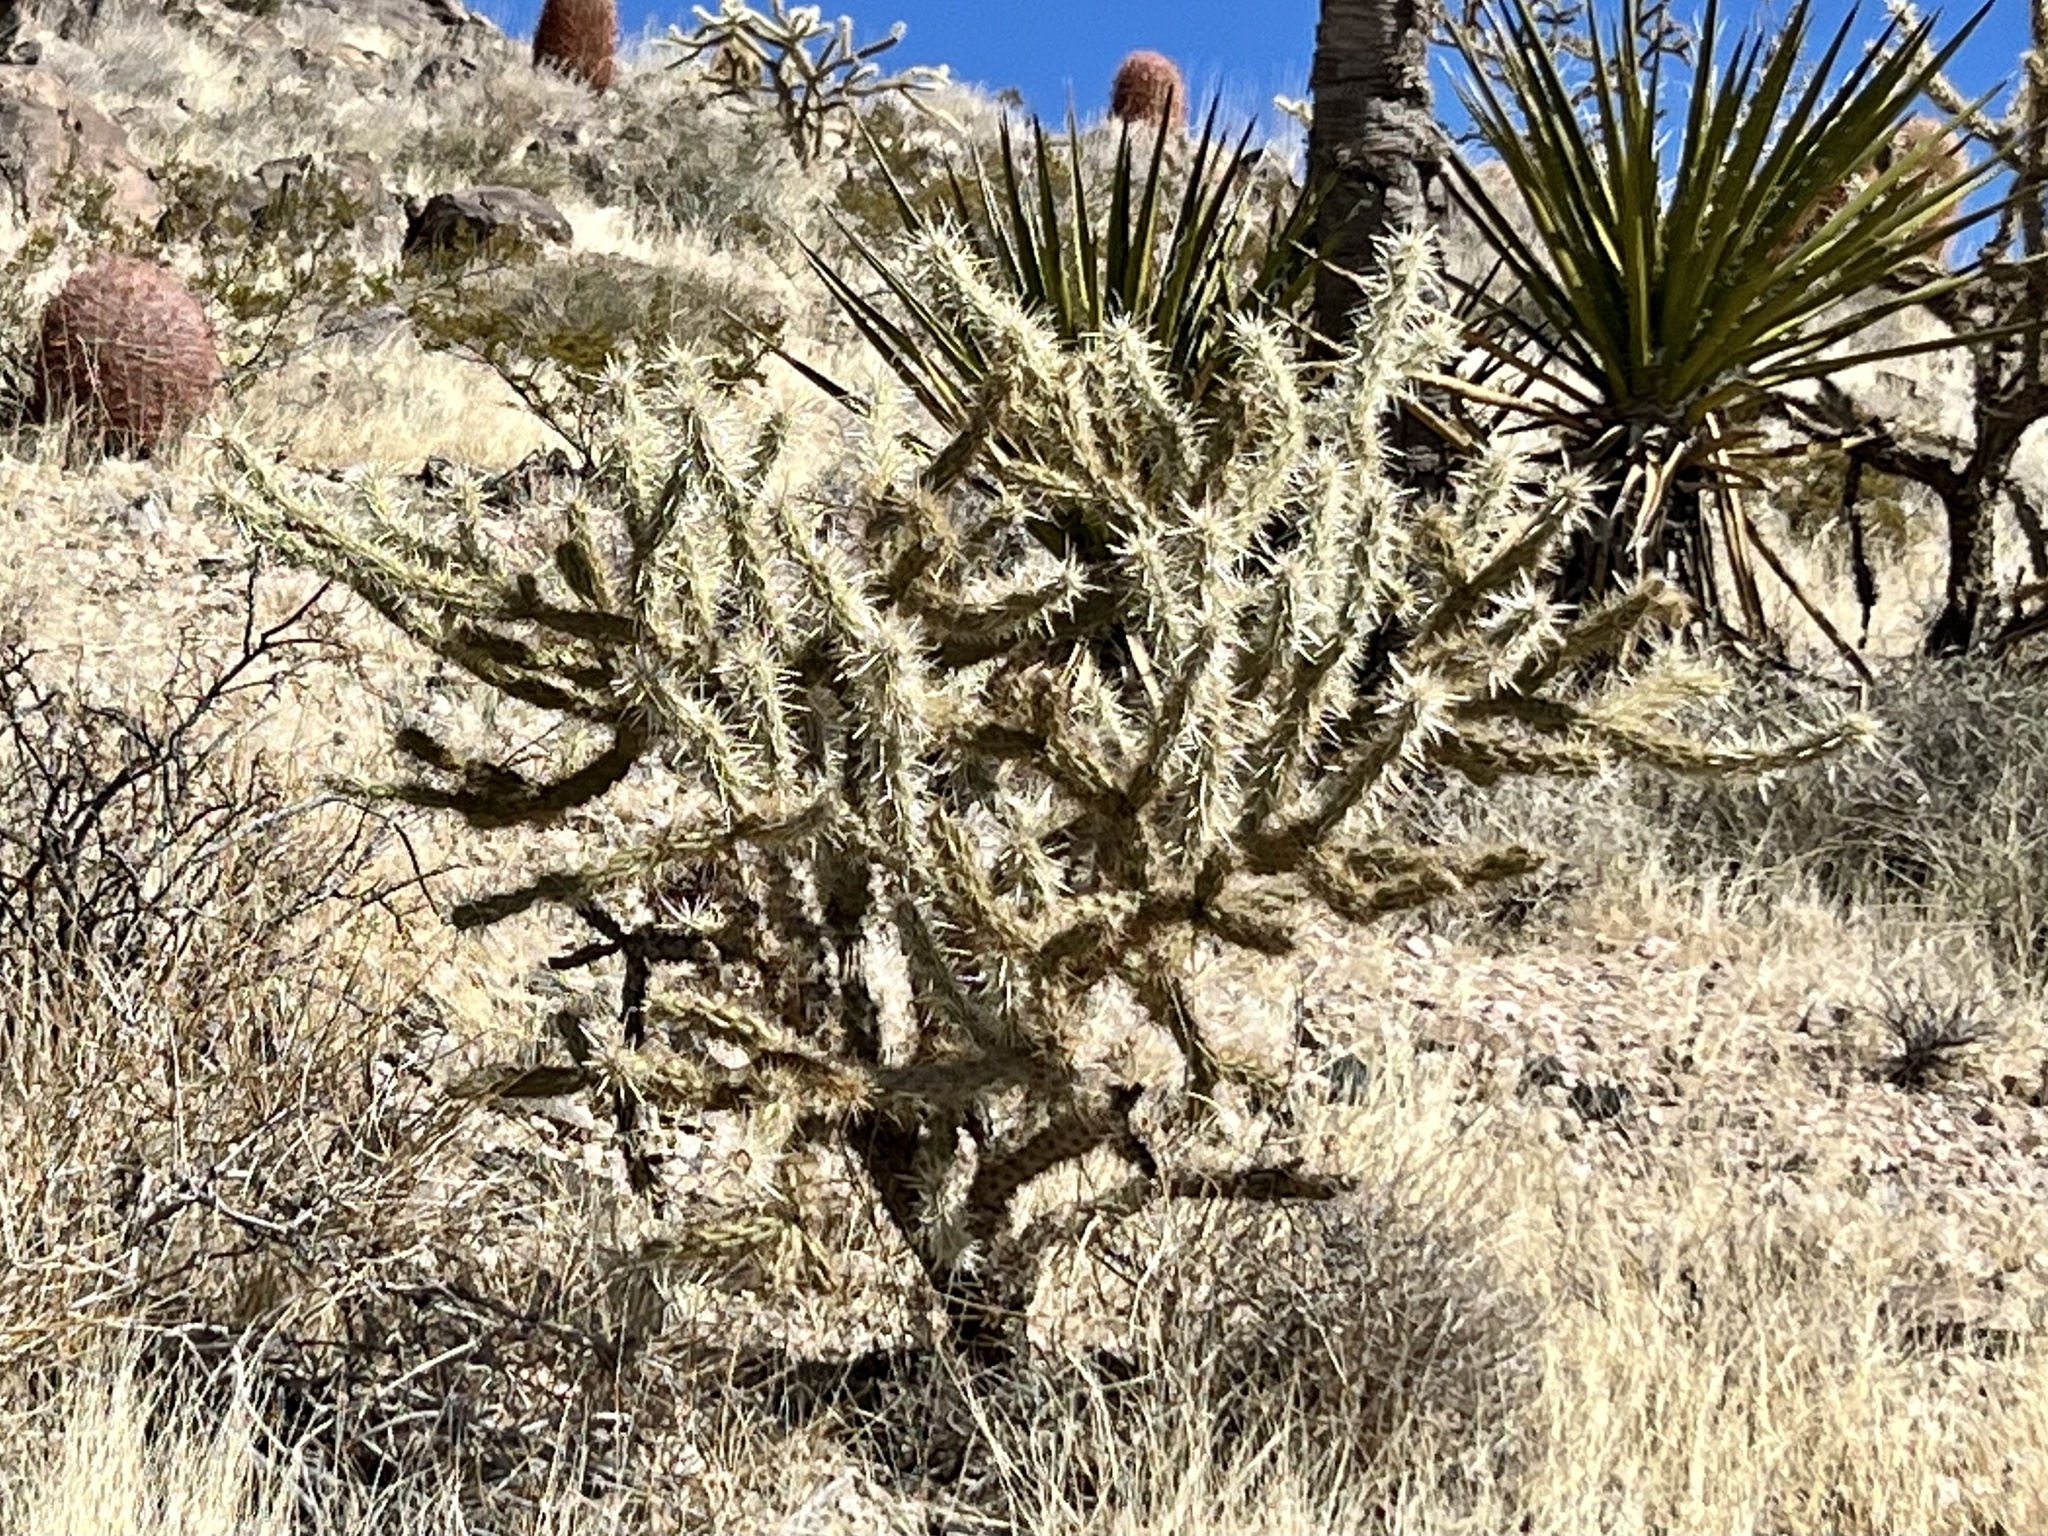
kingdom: Plantae
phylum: Tracheophyta
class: Magnoliopsida
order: Caryophyllales
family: Cactaceae
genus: Cylindropuntia
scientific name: Cylindropuntia acanthocarpa
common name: Buckhorn cholla
